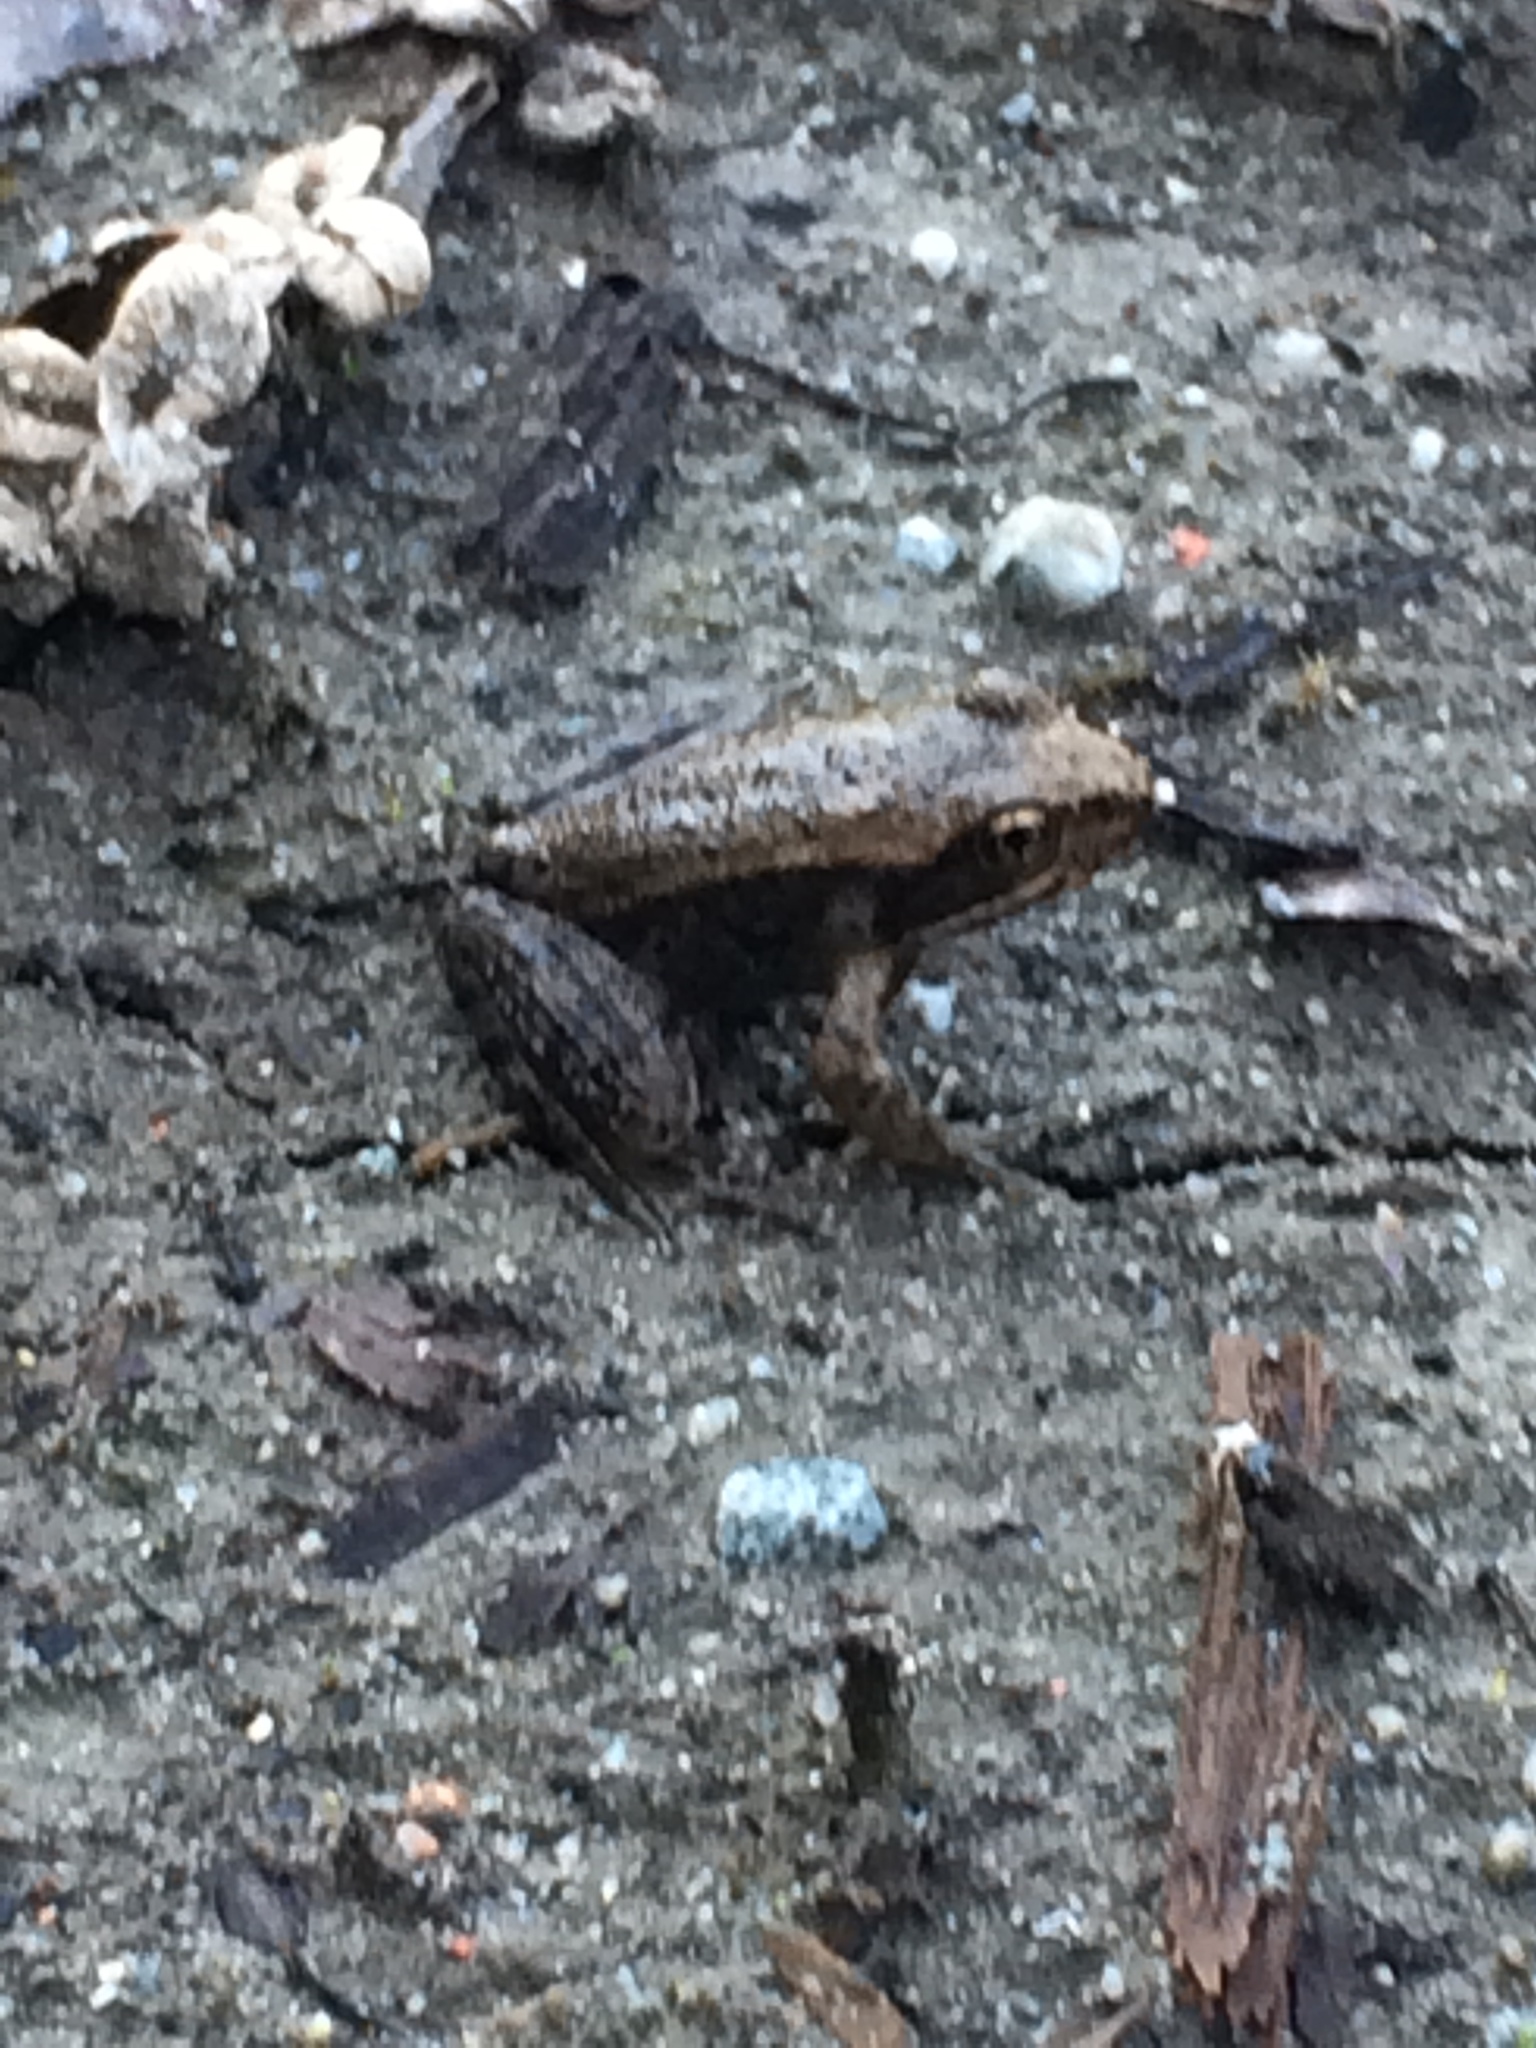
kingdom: Animalia
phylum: Chordata
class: Amphibia
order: Anura
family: Ranidae
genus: Rana
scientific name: Rana aurora
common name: Red-legged frog
